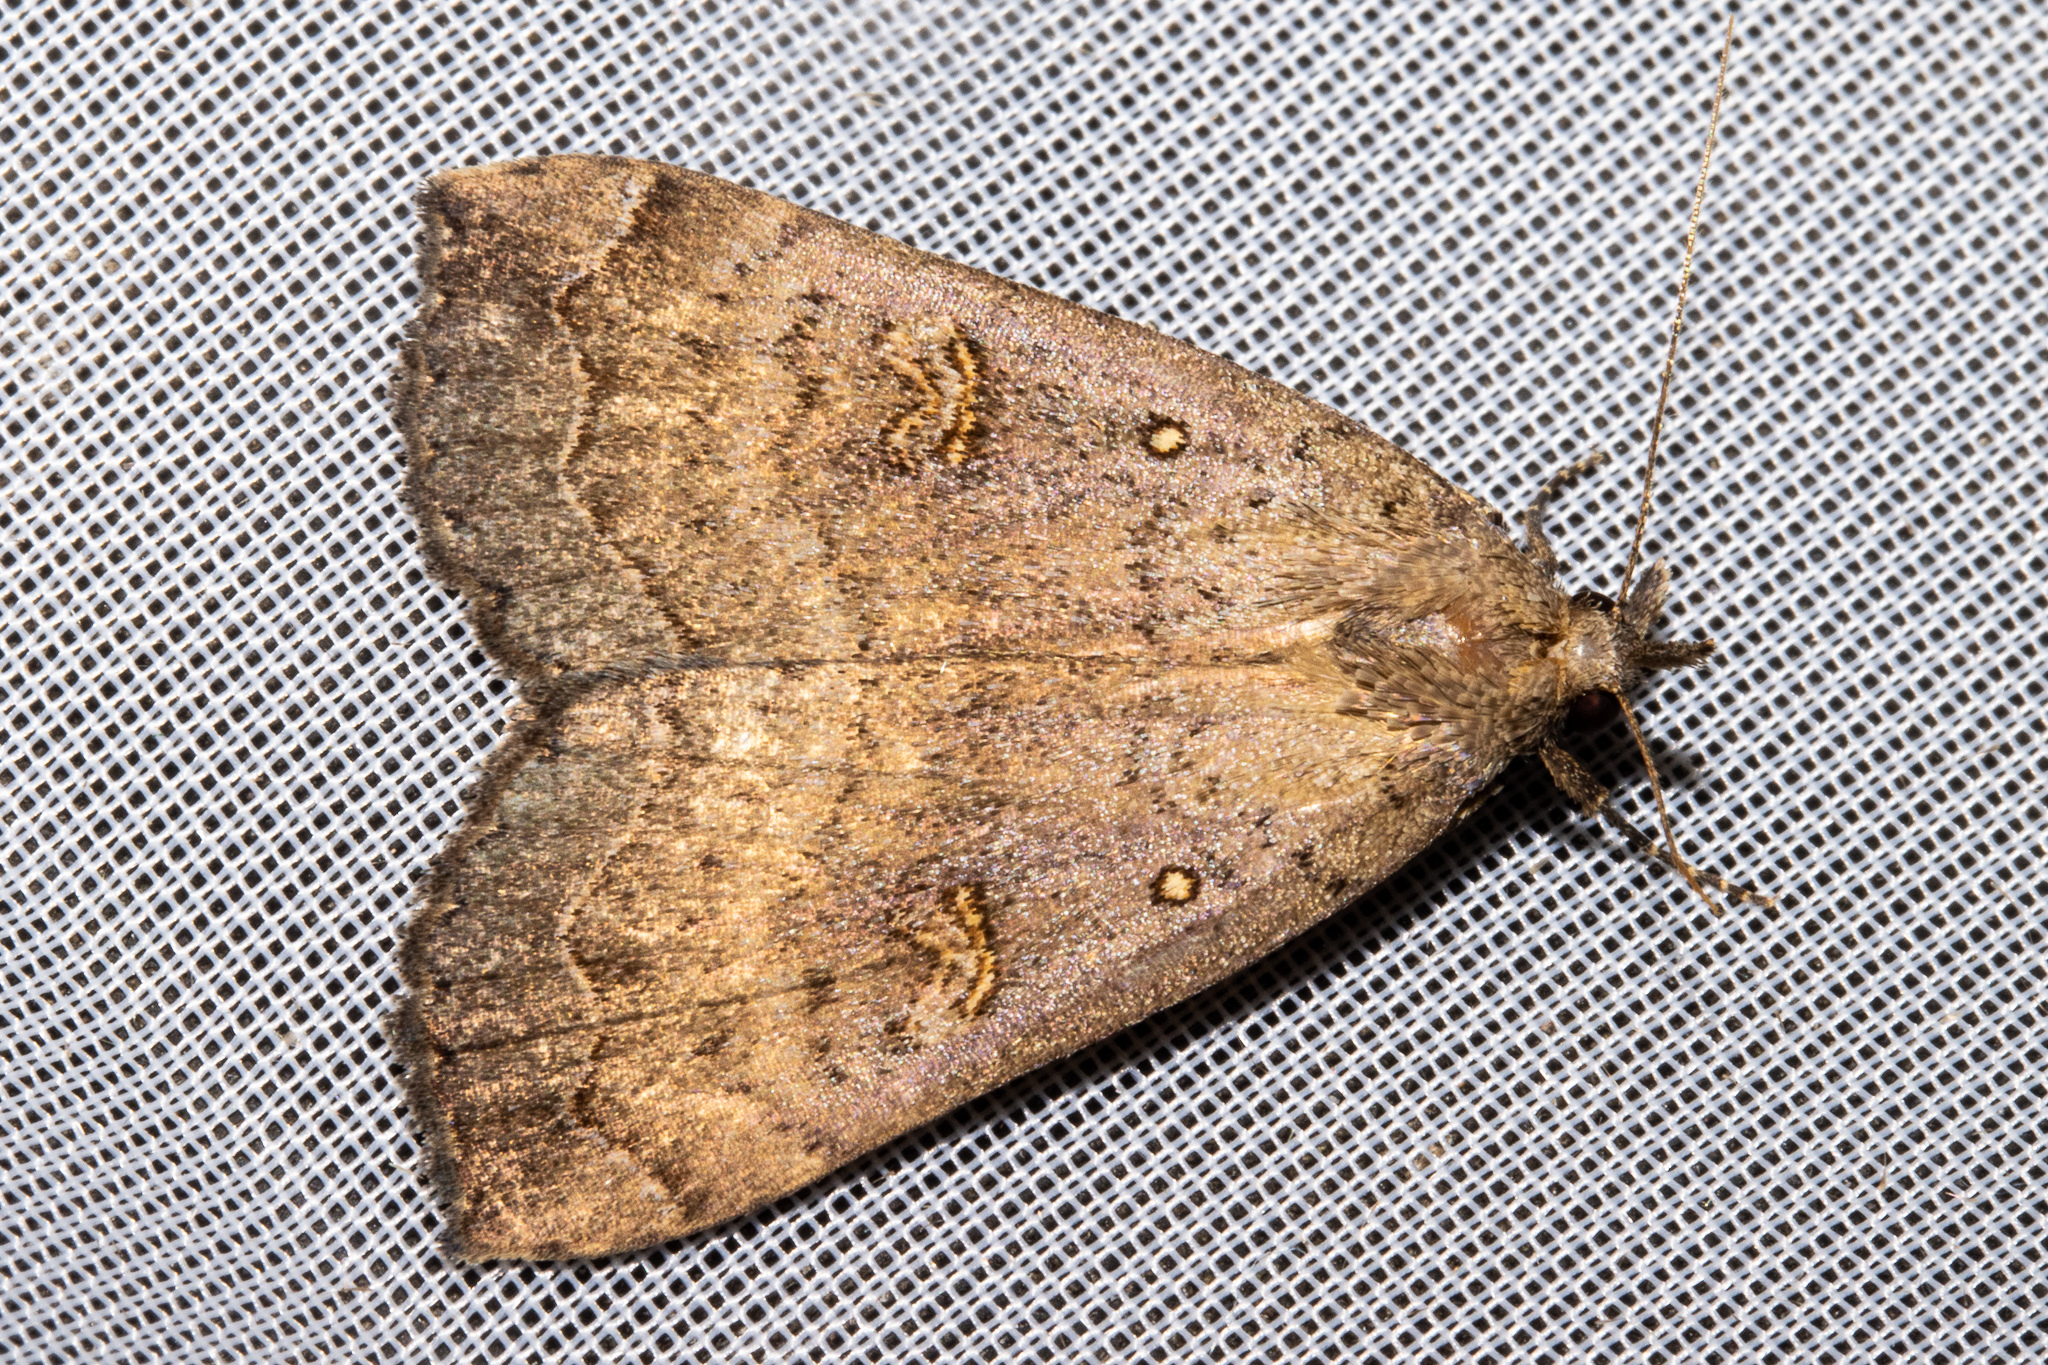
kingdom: Animalia
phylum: Arthropoda
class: Insecta
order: Lepidoptera
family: Erebidae
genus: Rhapsa
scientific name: Rhapsa scotosialis
